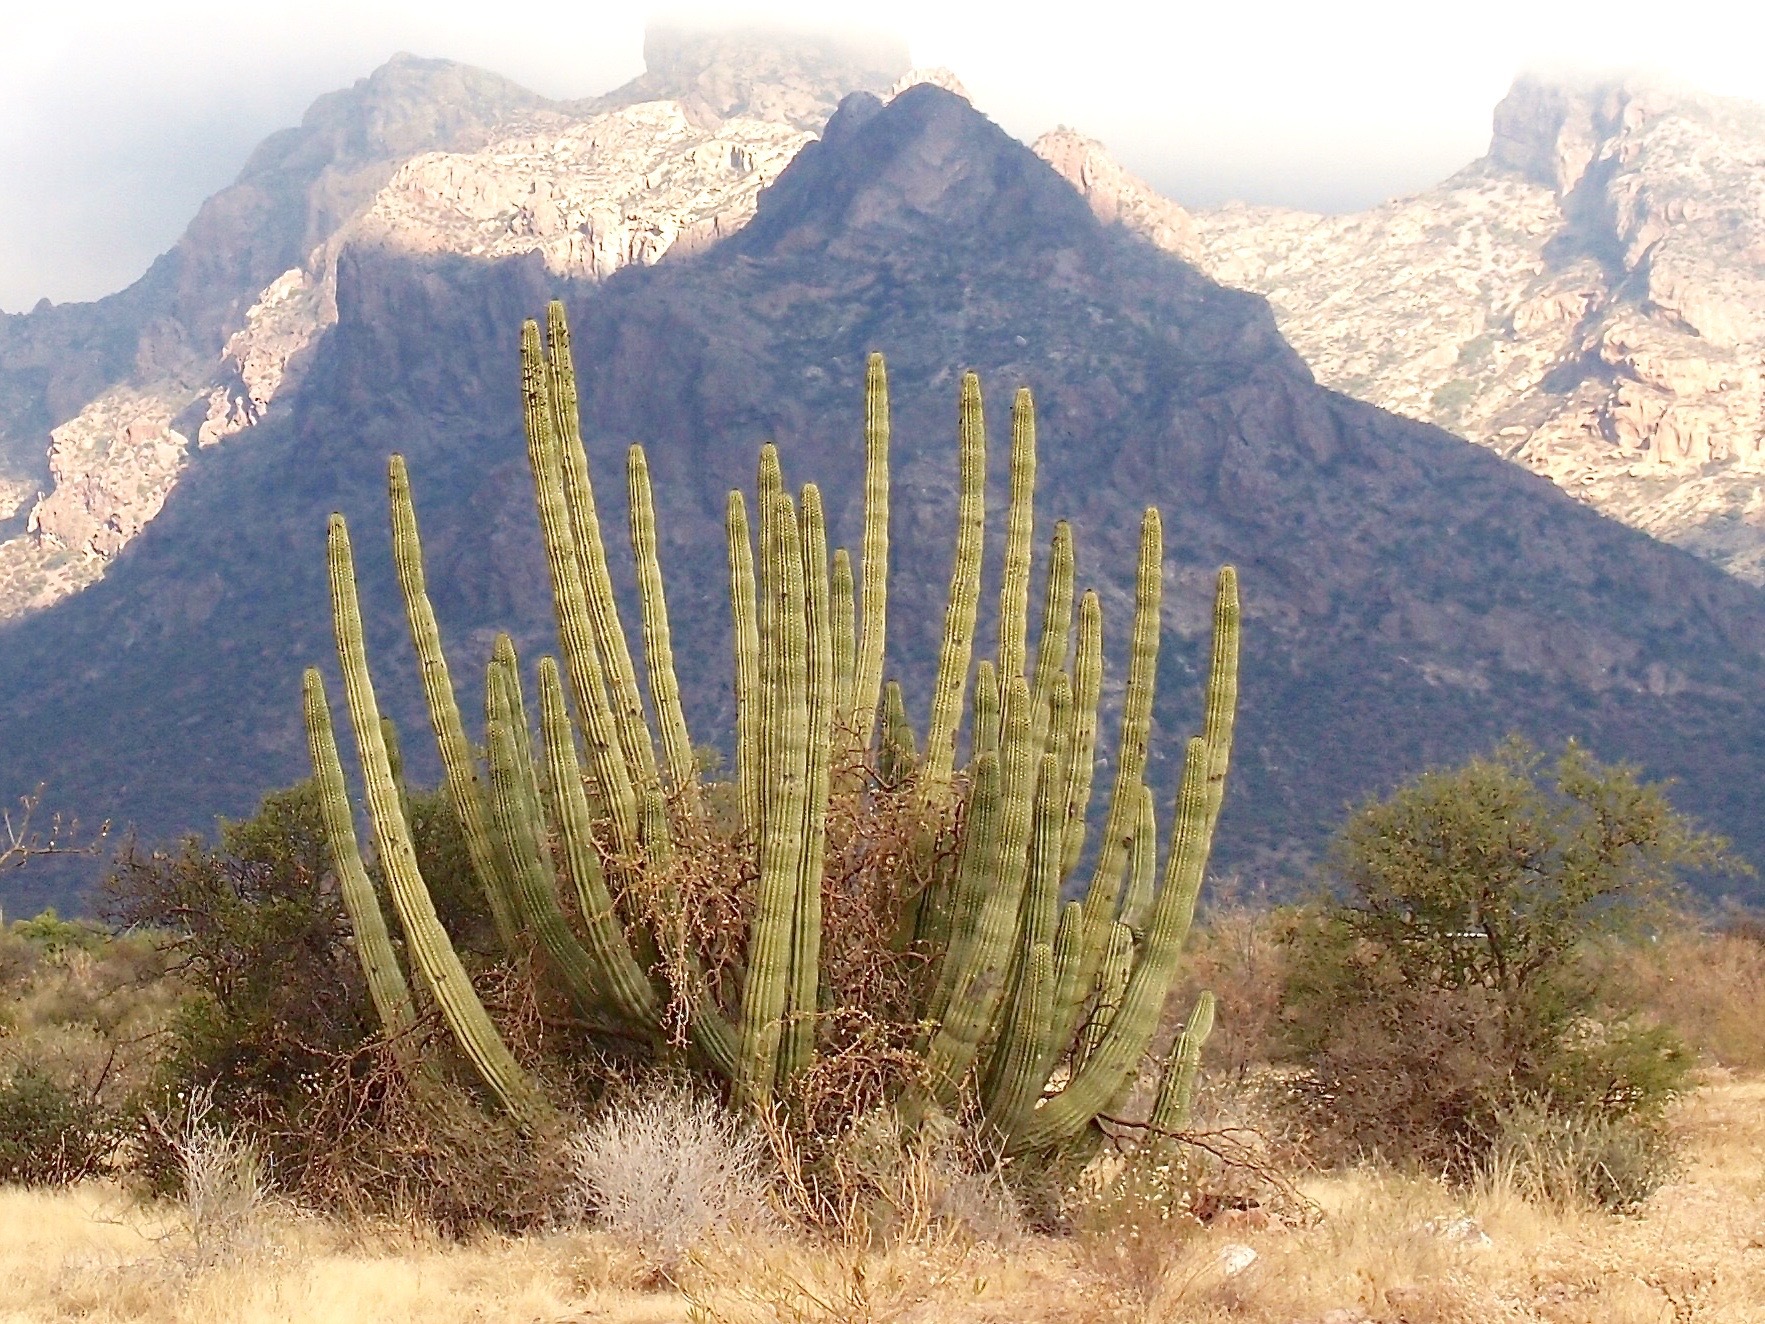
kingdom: Plantae
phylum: Tracheophyta
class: Magnoliopsida
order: Caryophyllales
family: Cactaceae
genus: Stenocereus
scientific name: Stenocereus thurberi
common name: Organ pipe cactus
